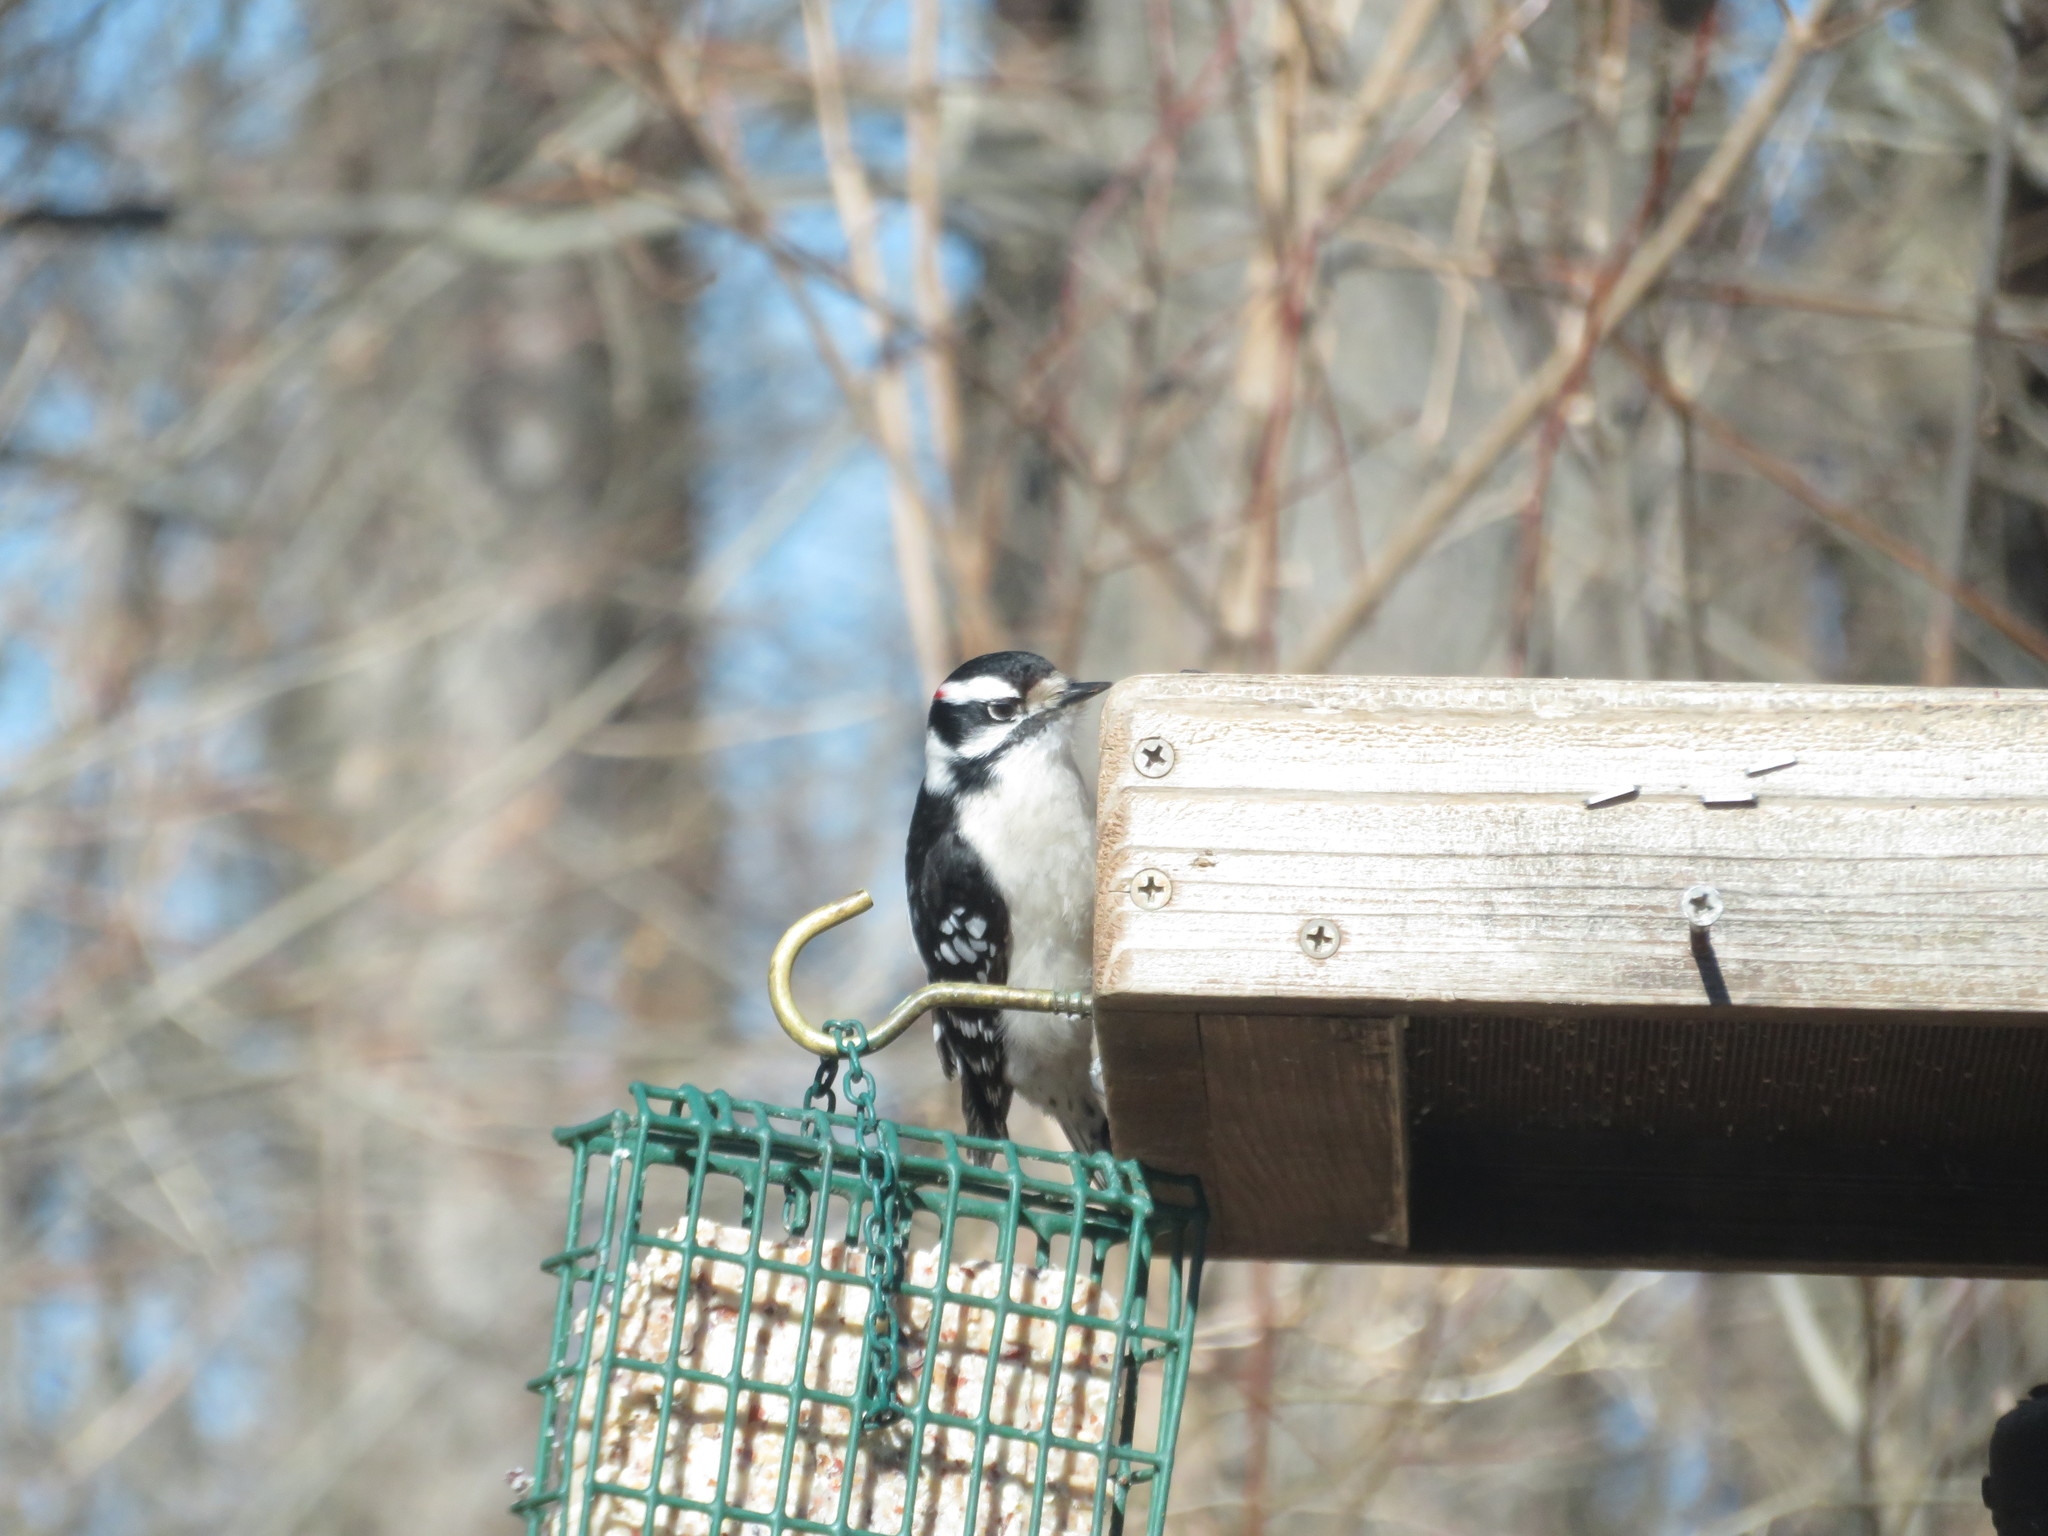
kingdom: Animalia
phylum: Chordata
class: Aves
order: Piciformes
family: Picidae
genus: Dryobates
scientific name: Dryobates pubescens
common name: Downy woodpecker
